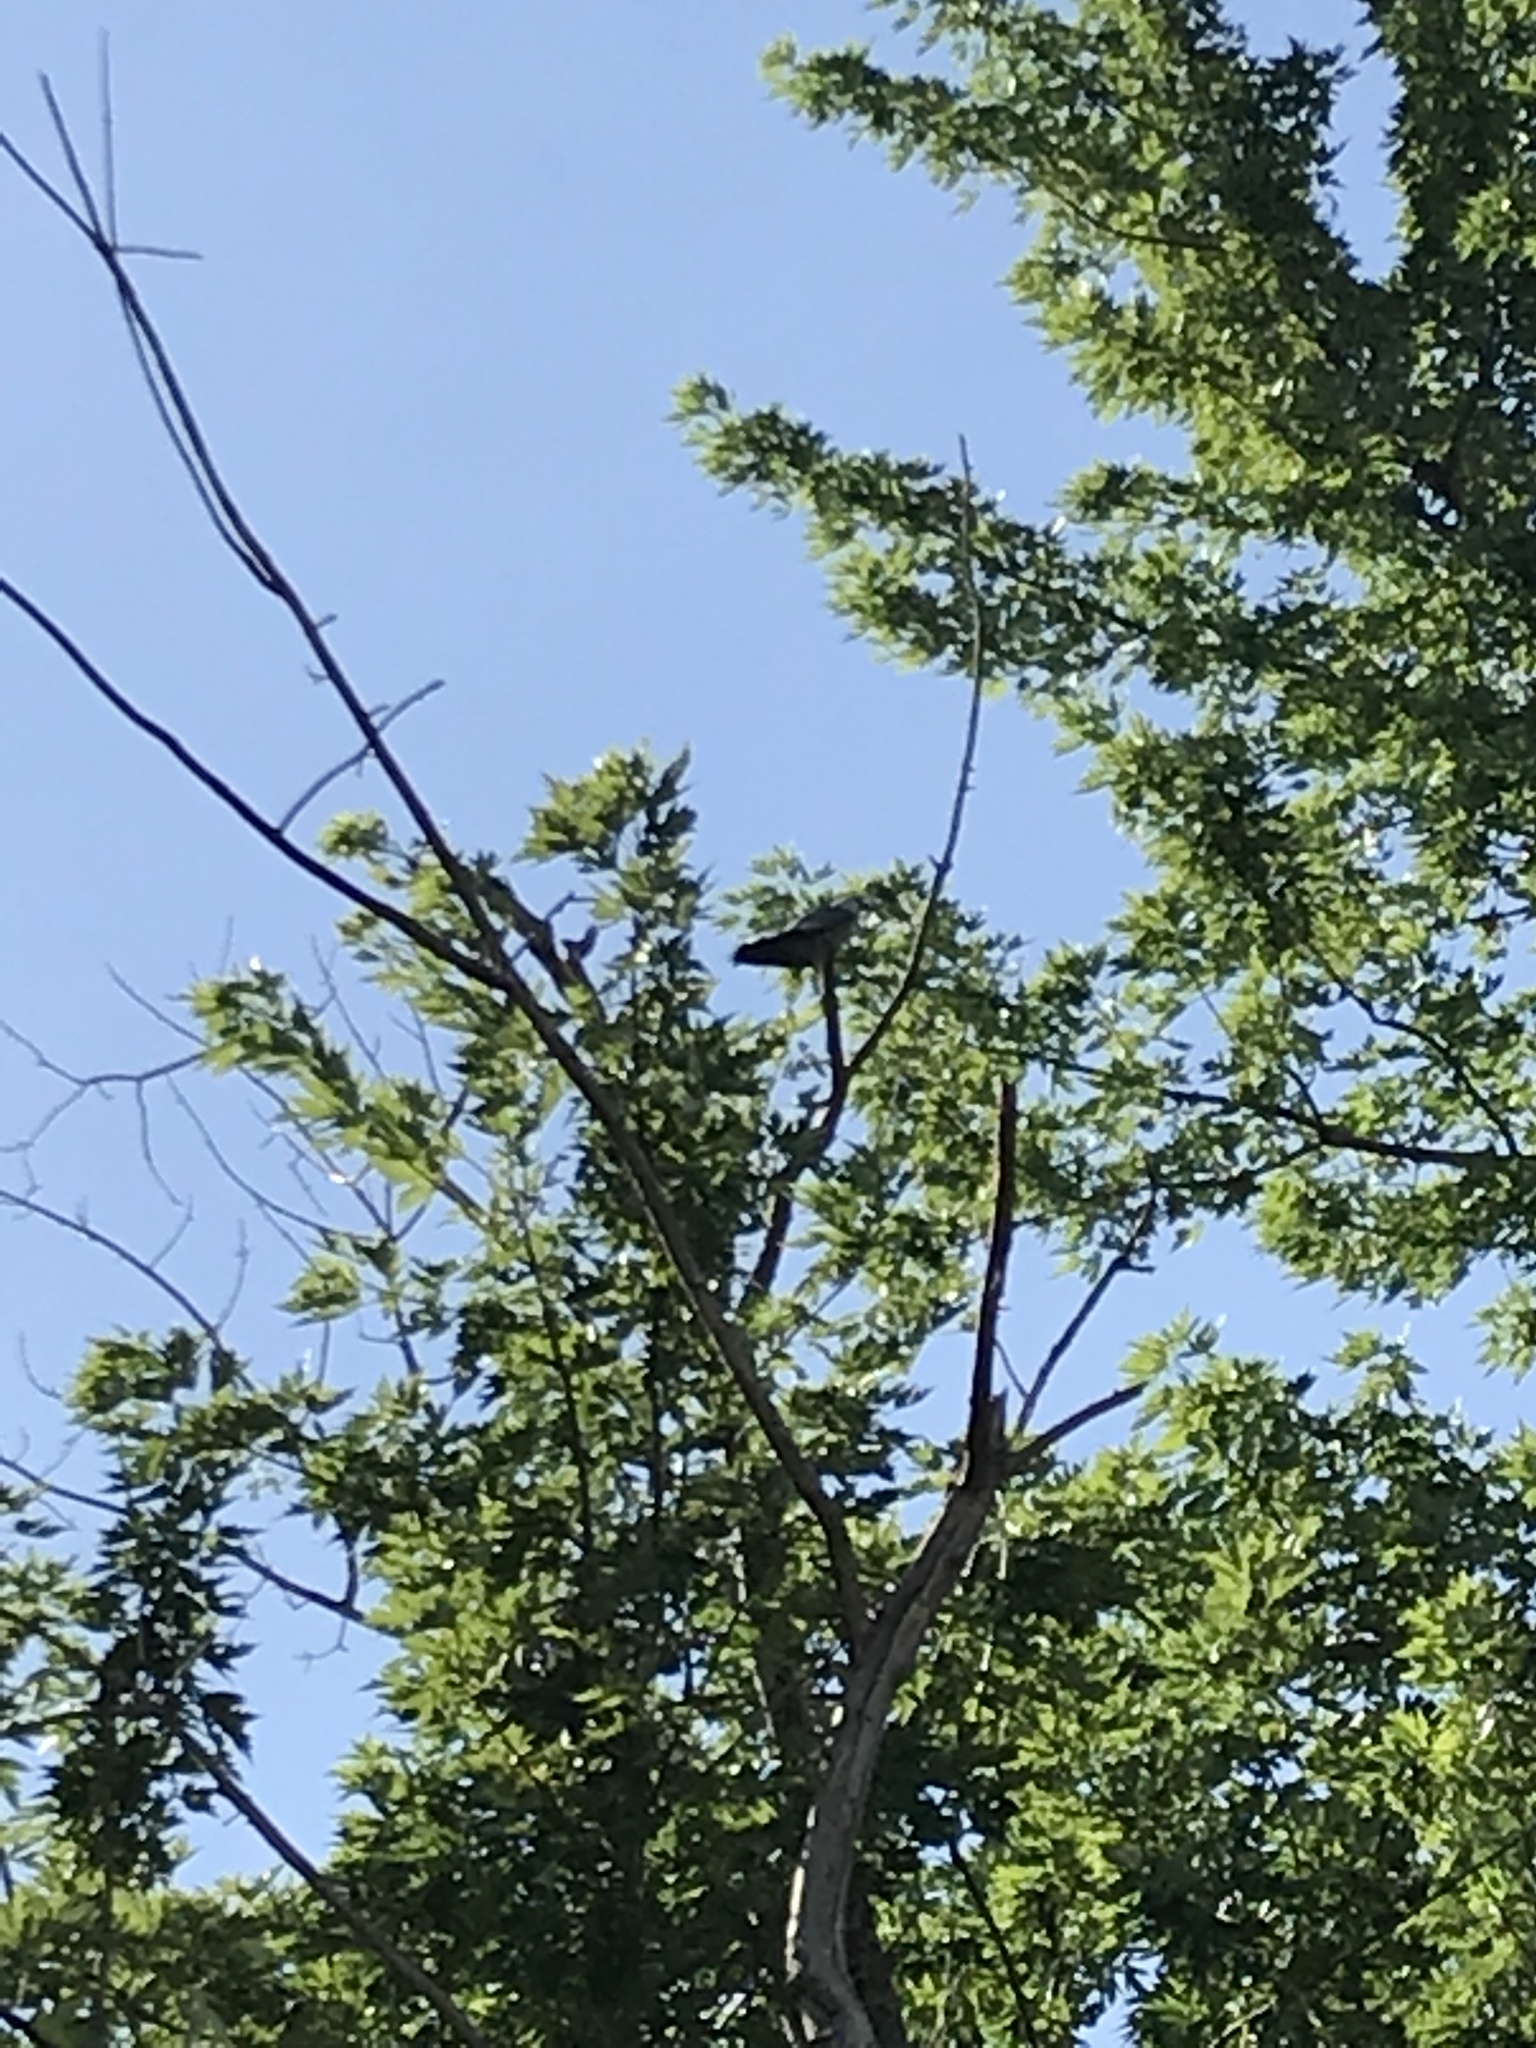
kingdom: Animalia
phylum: Chordata
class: Aves
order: Accipitriformes
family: Accipitridae
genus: Ictinia
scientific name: Ictinia mississippiensis
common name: Mississippi kite
